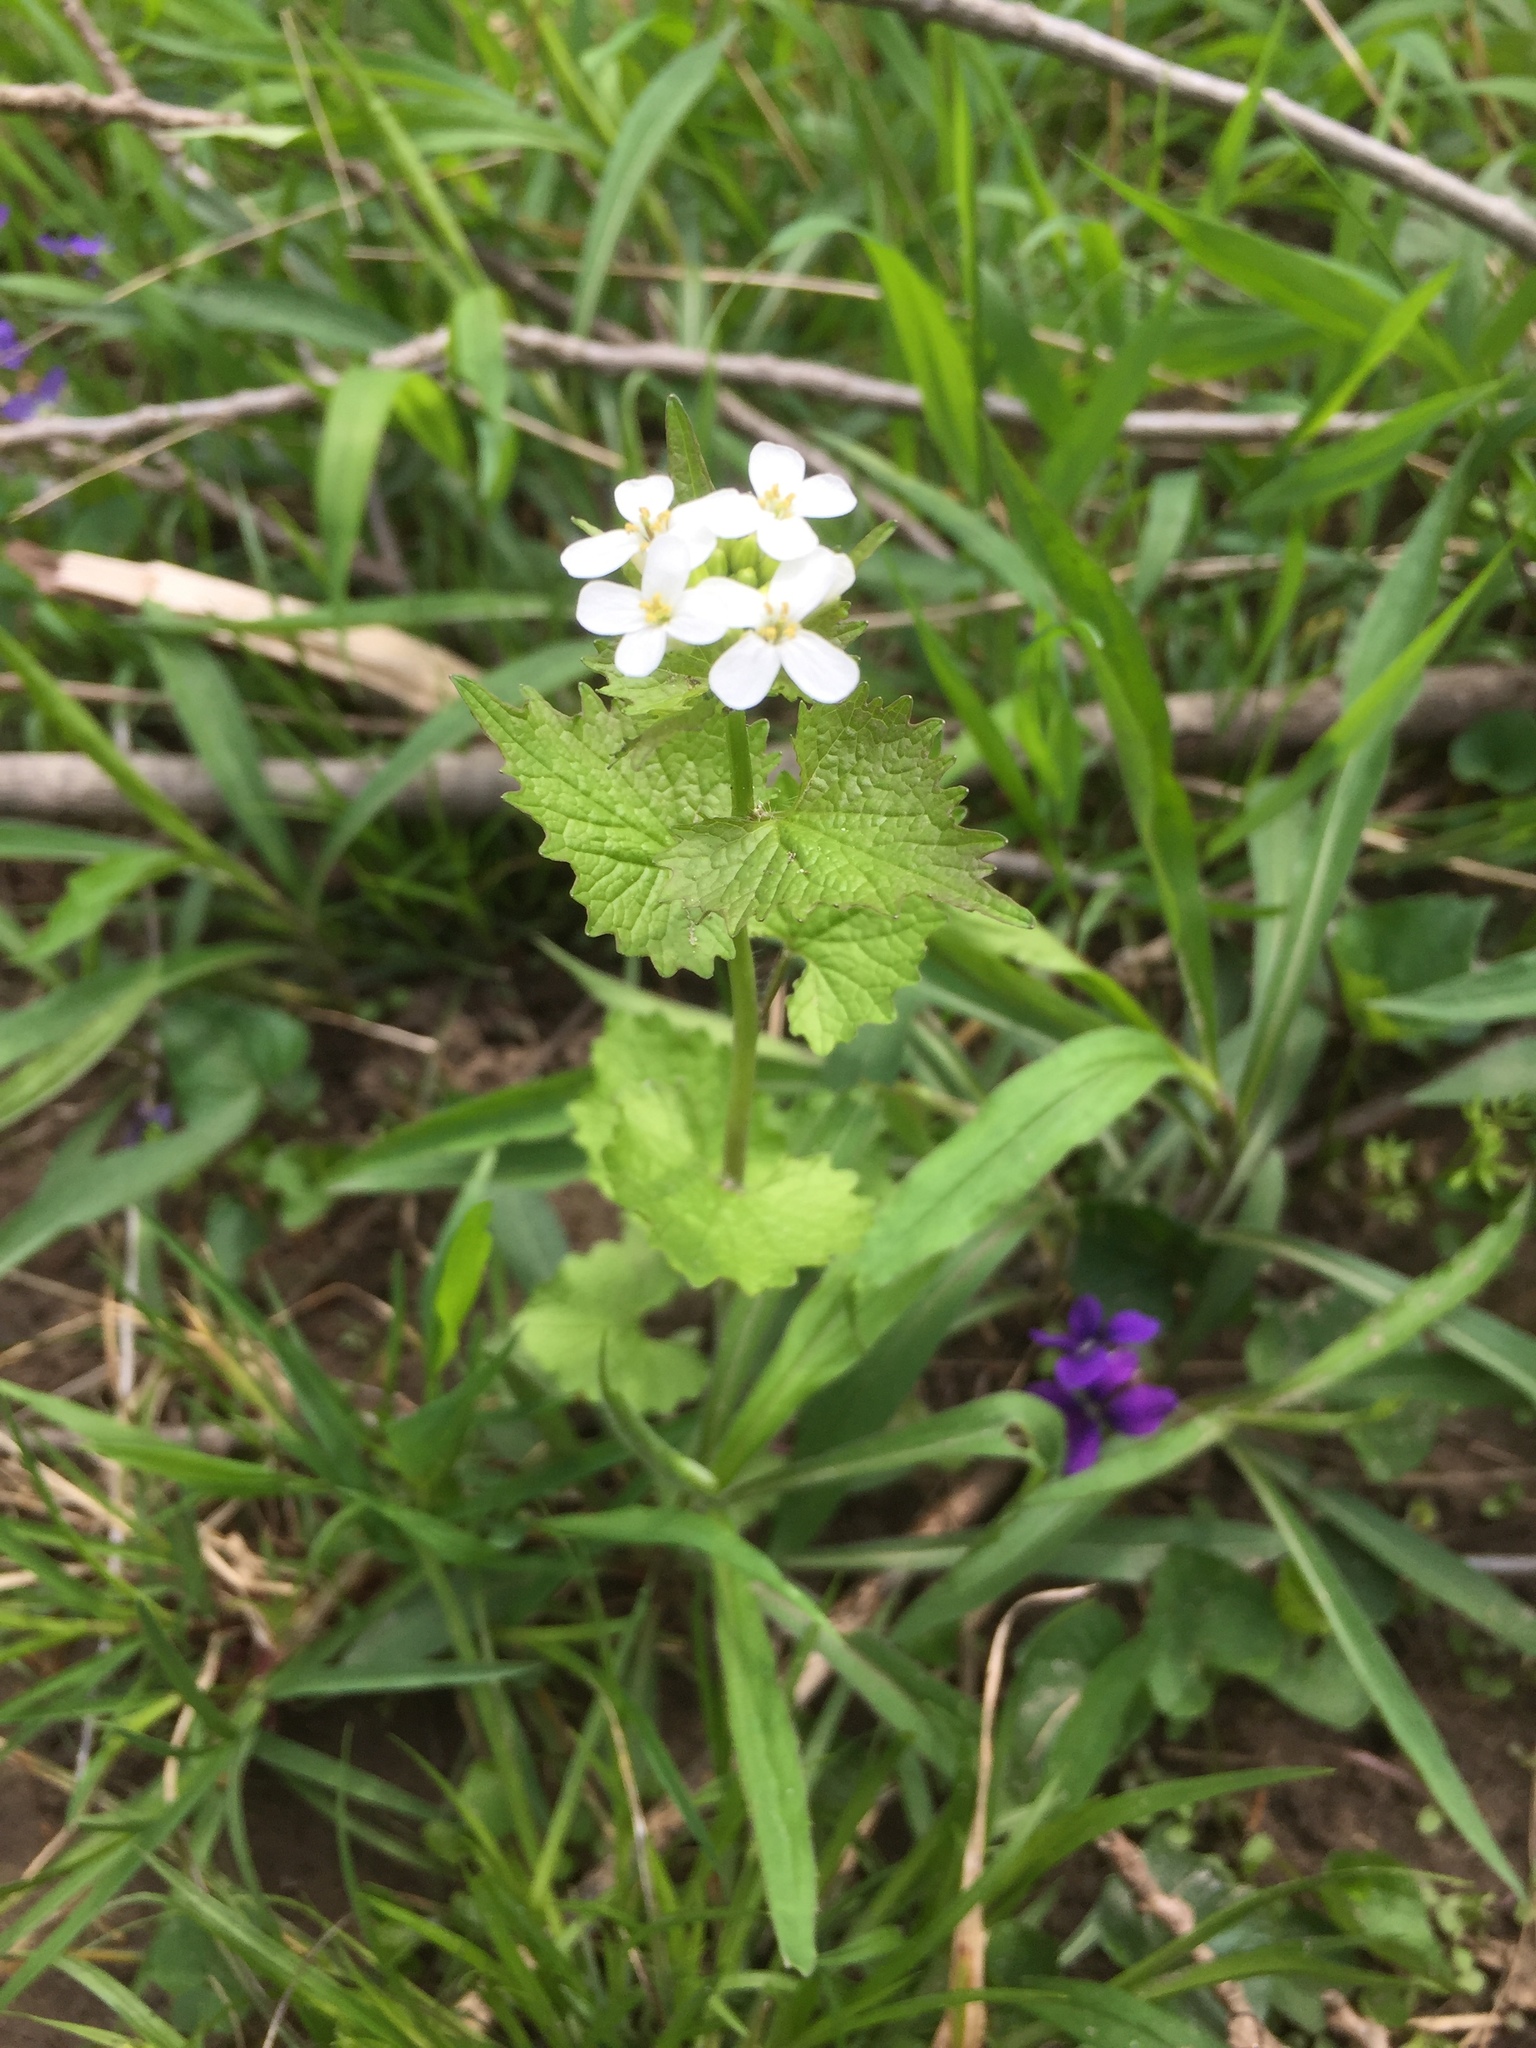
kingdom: Plantae
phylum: Tracheophyta
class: Magnoliopsida
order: Brassicales
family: Brassicaceae
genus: Alliaria
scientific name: Alliaria petiolata
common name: Garlic mustard
